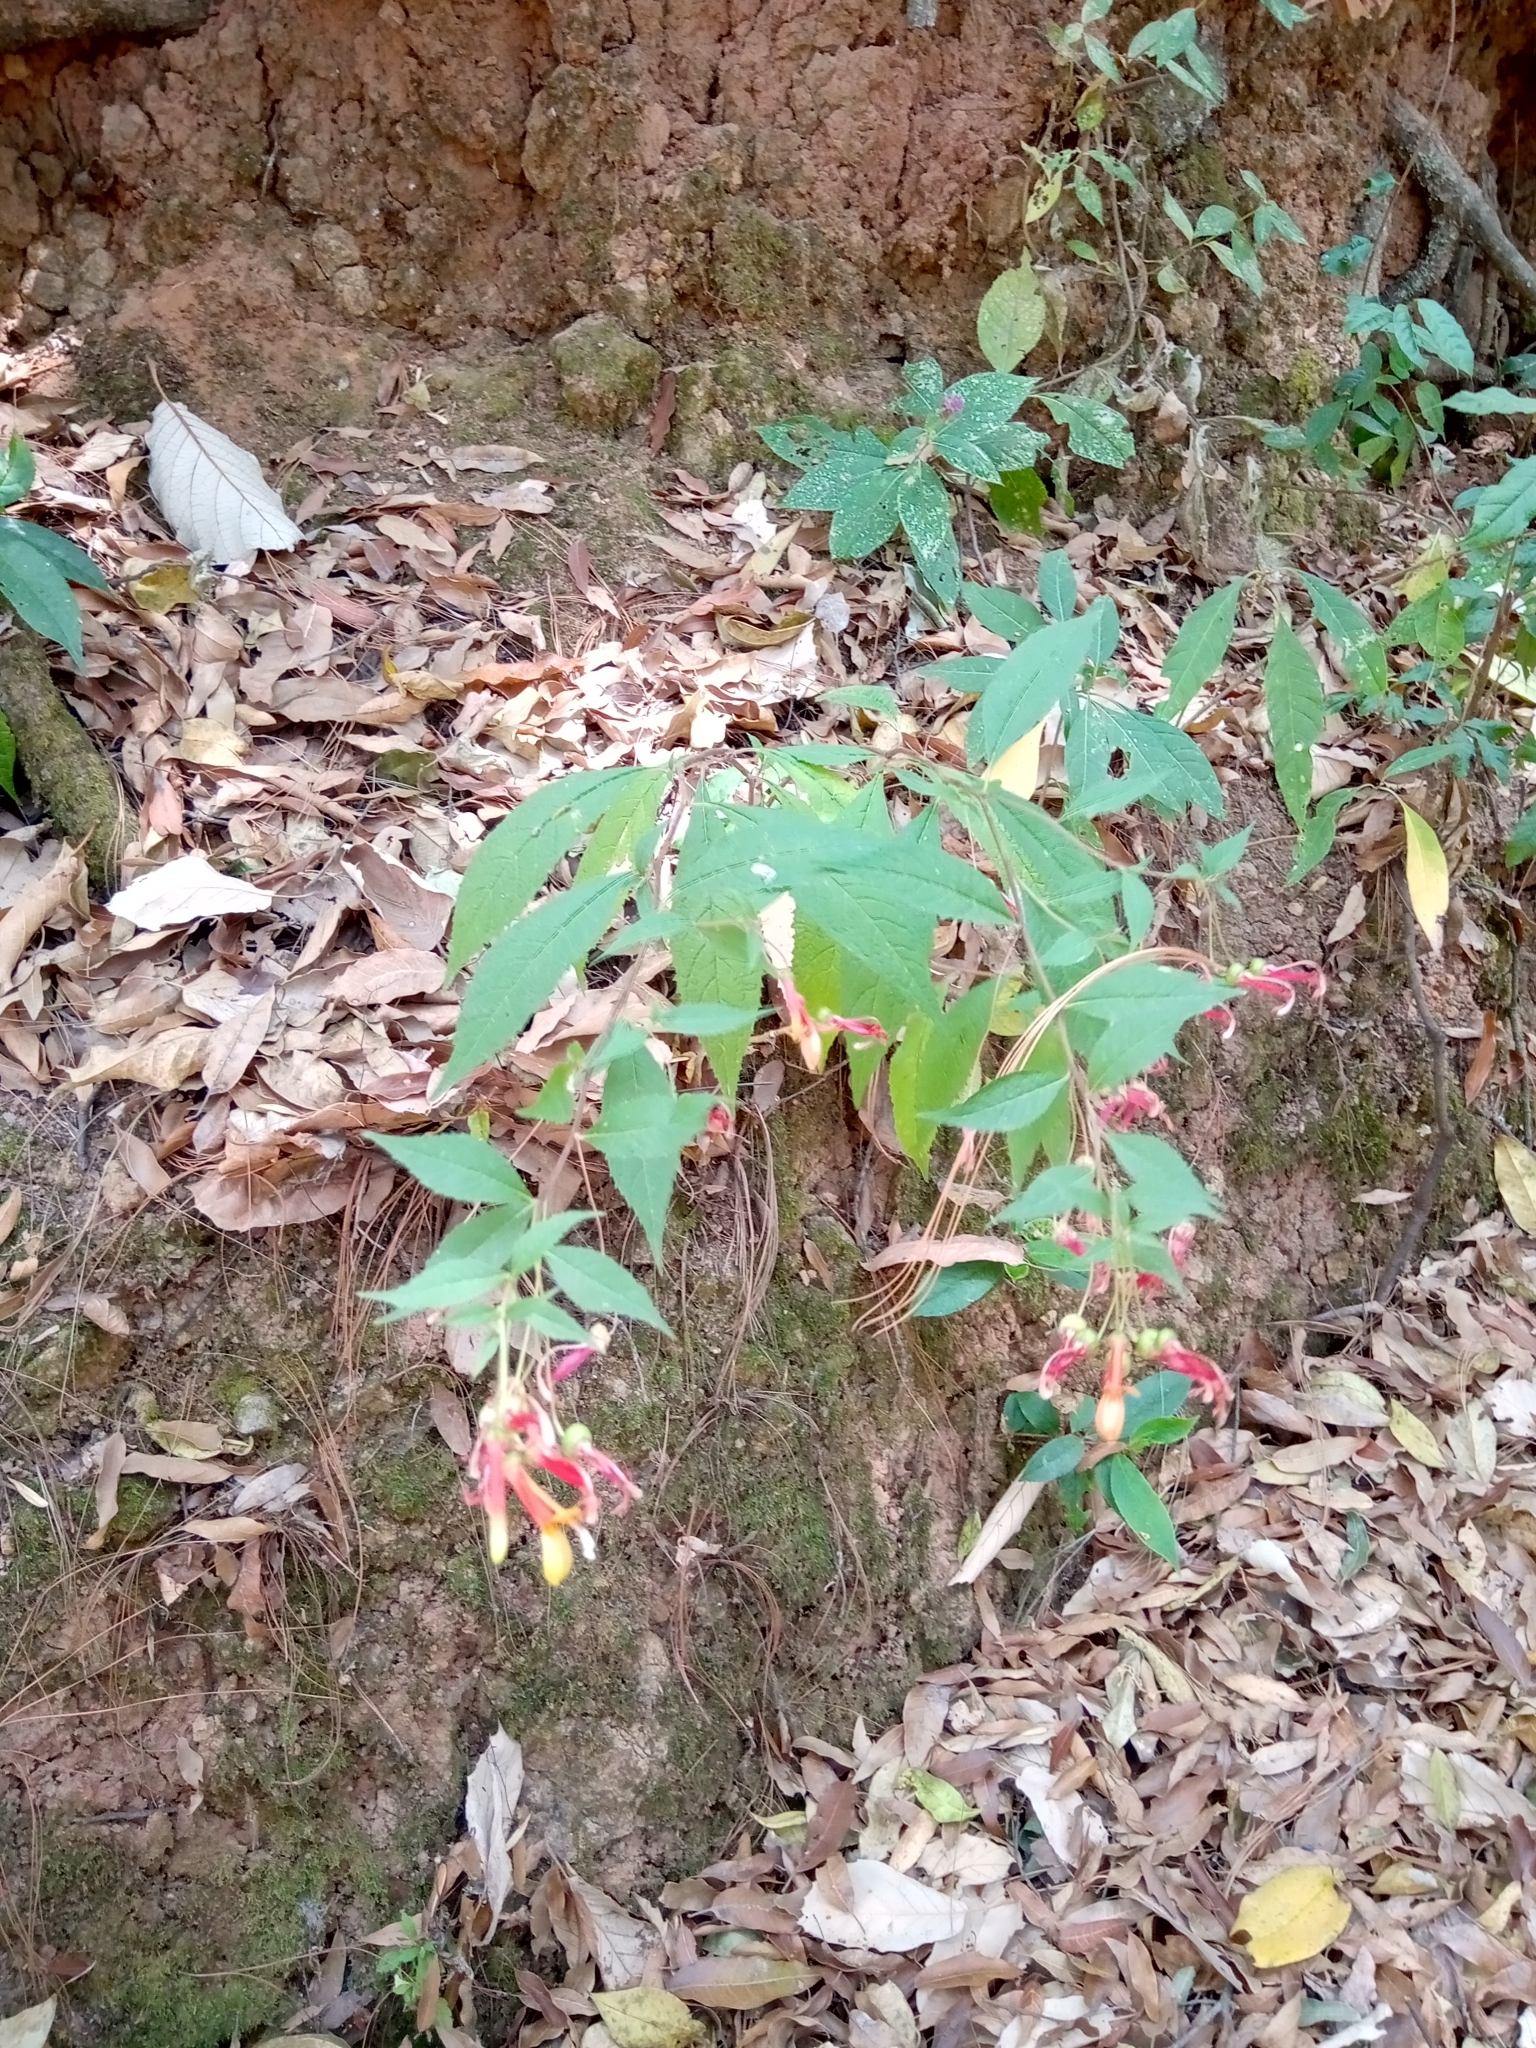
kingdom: Plantae
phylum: Tracheophyta
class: Magnoliopsida
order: Asterales
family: Campanulaceae
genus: Lobelia
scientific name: Lobelia laxiflora
